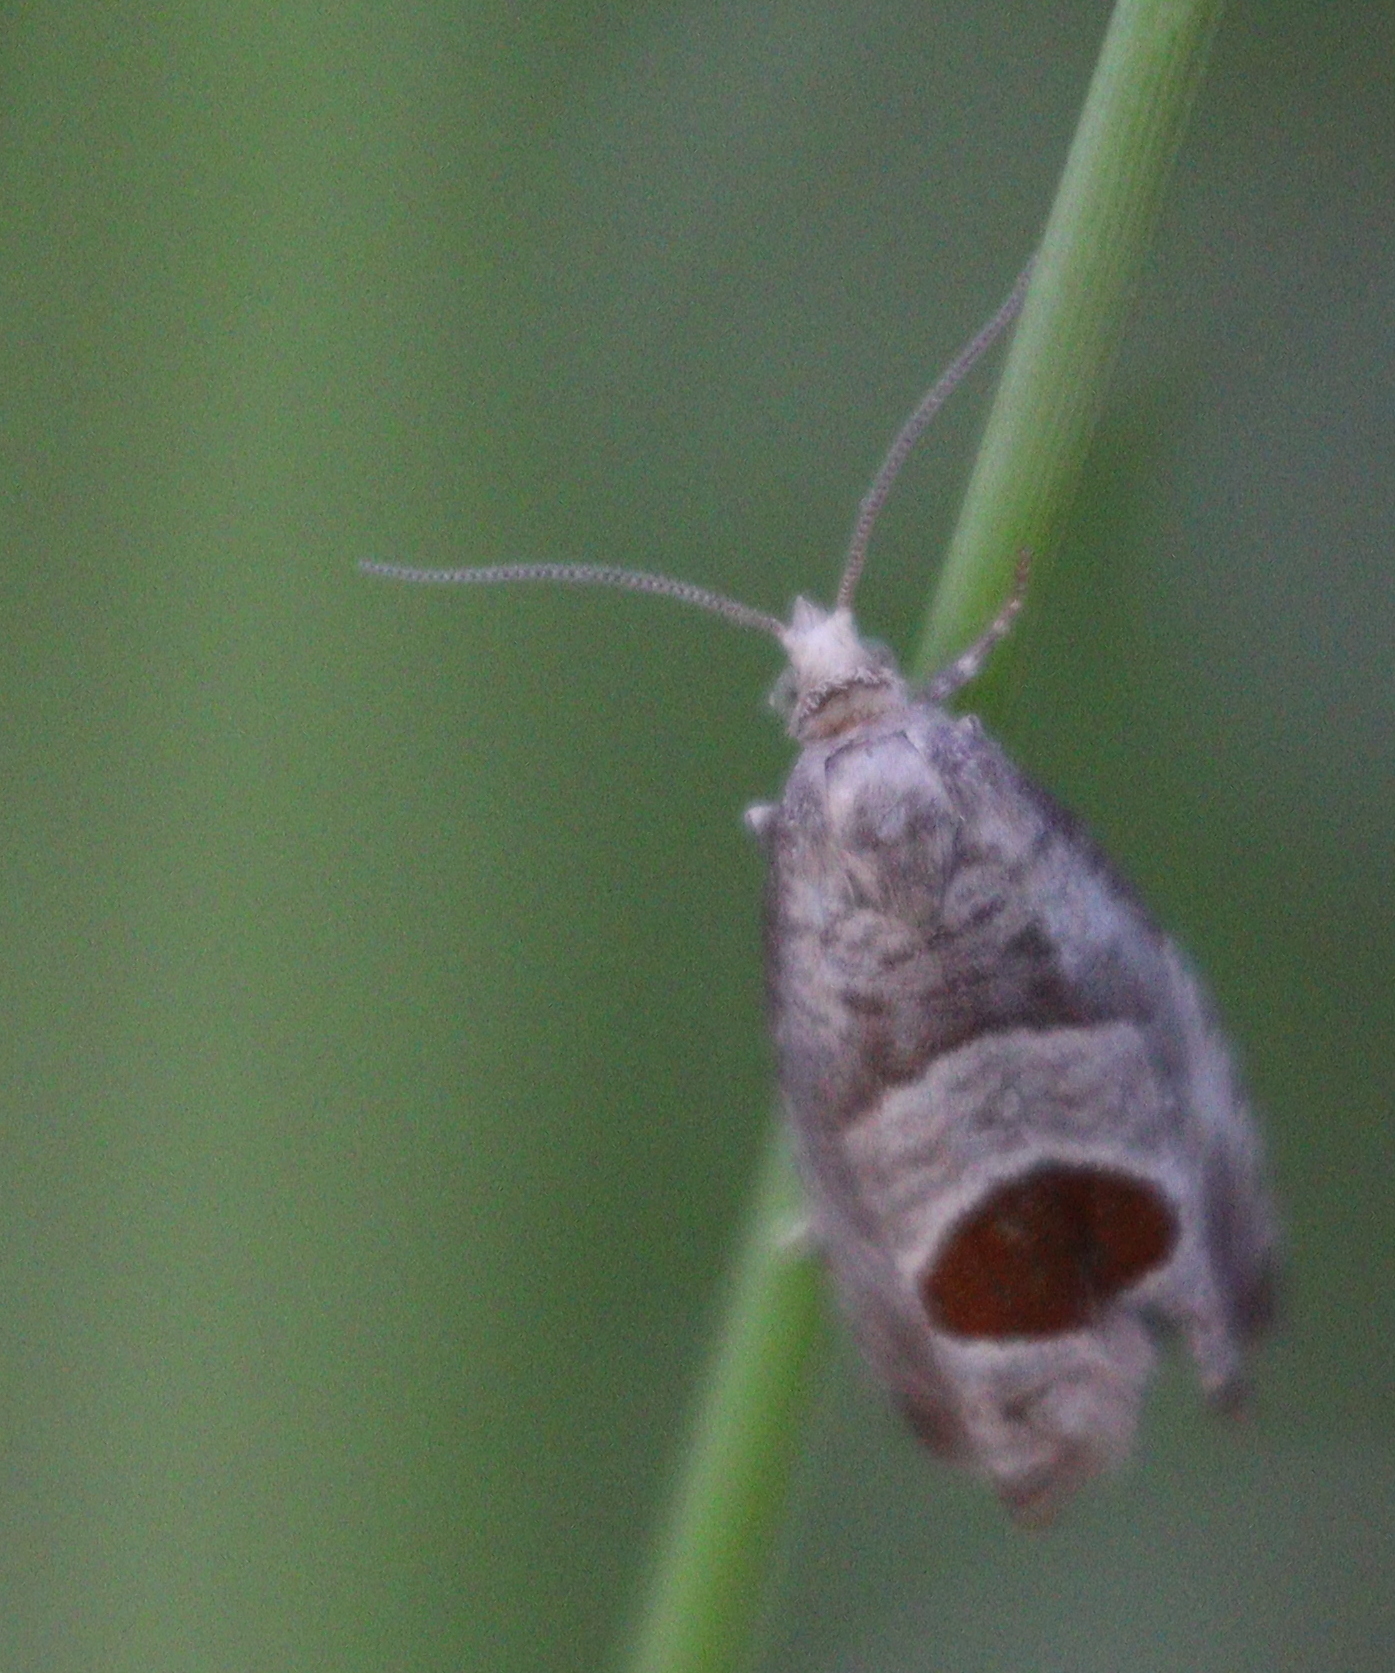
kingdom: Animalia
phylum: Arthropoda
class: Insecta
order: Lepidoptera
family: Tortricidae
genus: Notocelia
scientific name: Notocelia uddmanniana
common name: Bramble shoot moth
